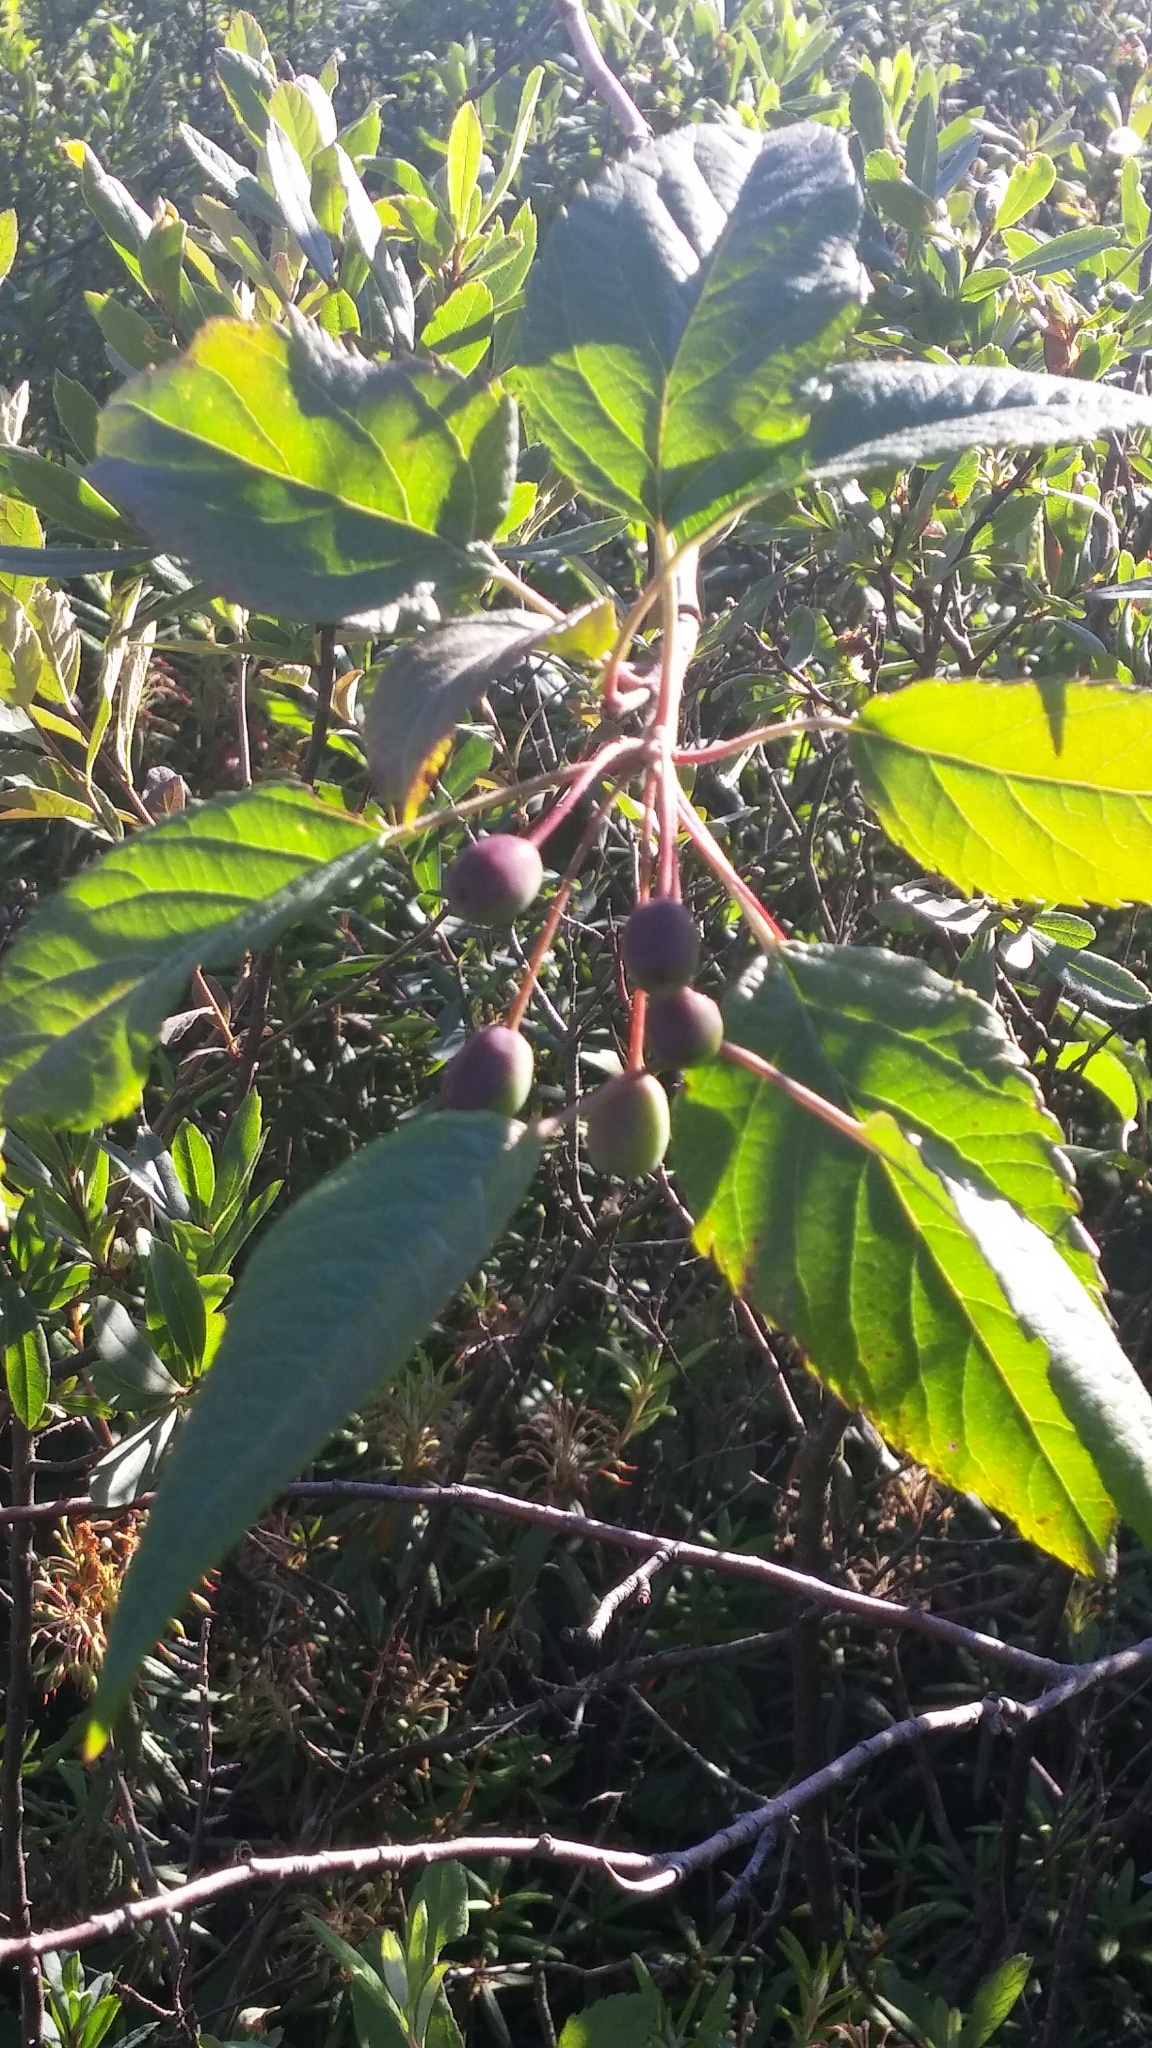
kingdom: Plantae
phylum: Tracheophyta
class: Magnoliopsida
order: Rosales
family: Rosaceae
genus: Malus
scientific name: Malus fusca
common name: Oregon crab apple
